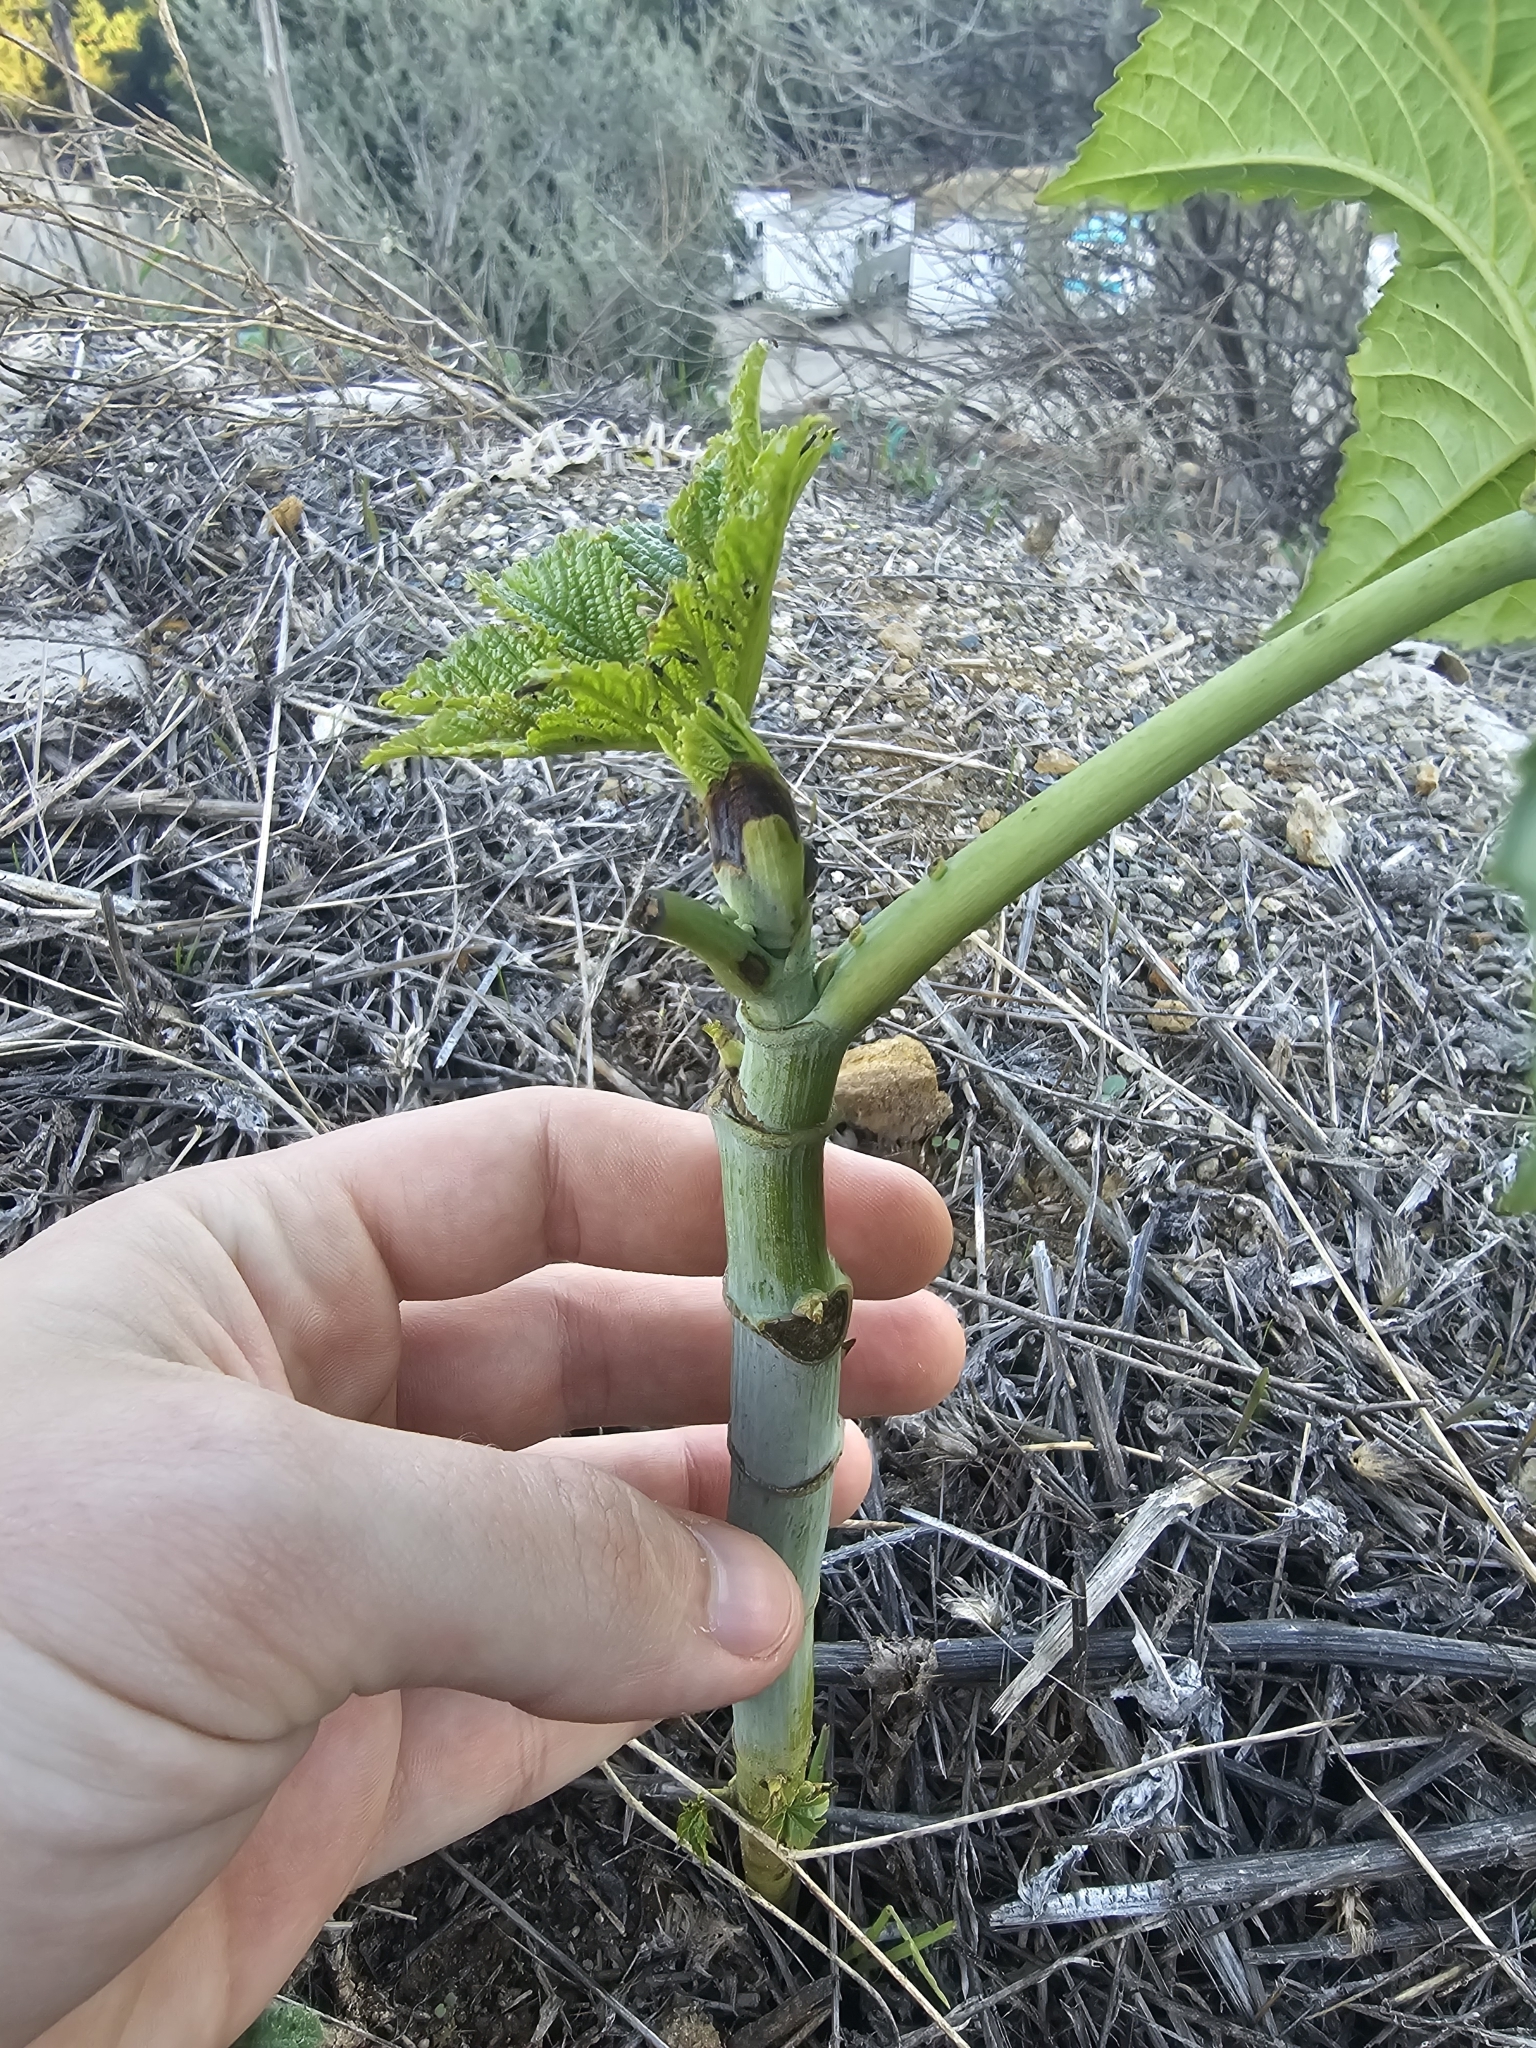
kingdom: Plantae
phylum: Tracheophyta
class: Magnoliopsida
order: Malpighiales
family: Euphorbiaceae
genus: Ricinus
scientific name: Ricinus communis
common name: Castor-oil-plant
